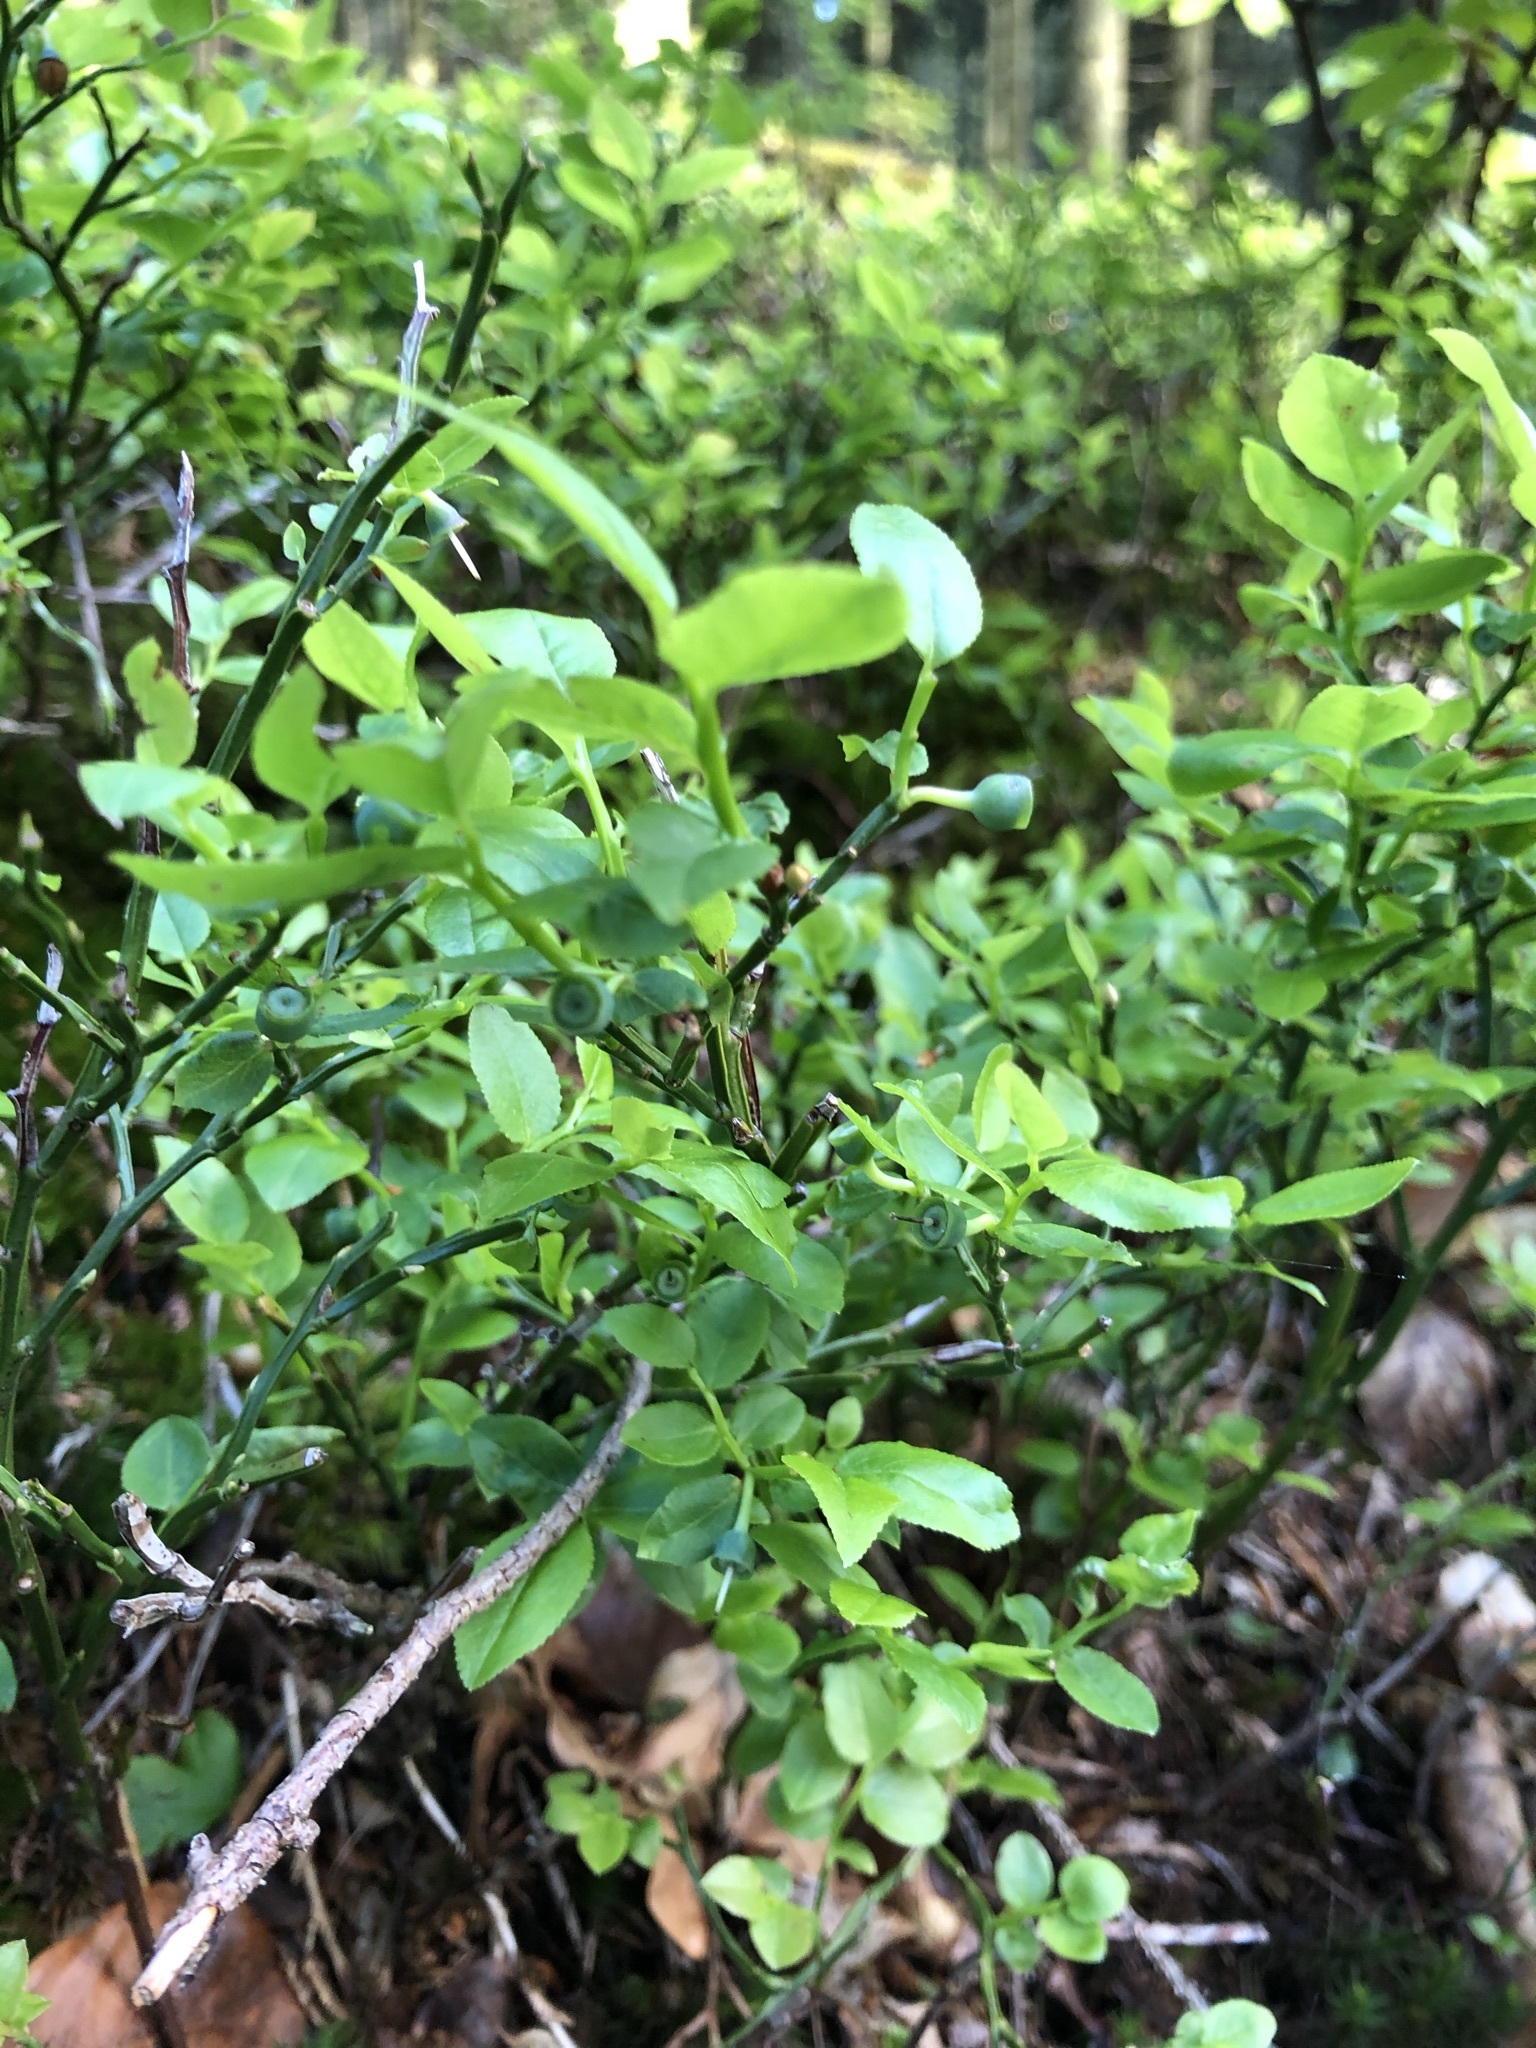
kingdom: Plantae
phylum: Tracheophyta
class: Magnoliopsida
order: Ericales
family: Ericaceae
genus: Vaccinium
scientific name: Vaccinium myrtillus
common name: Bilberry
